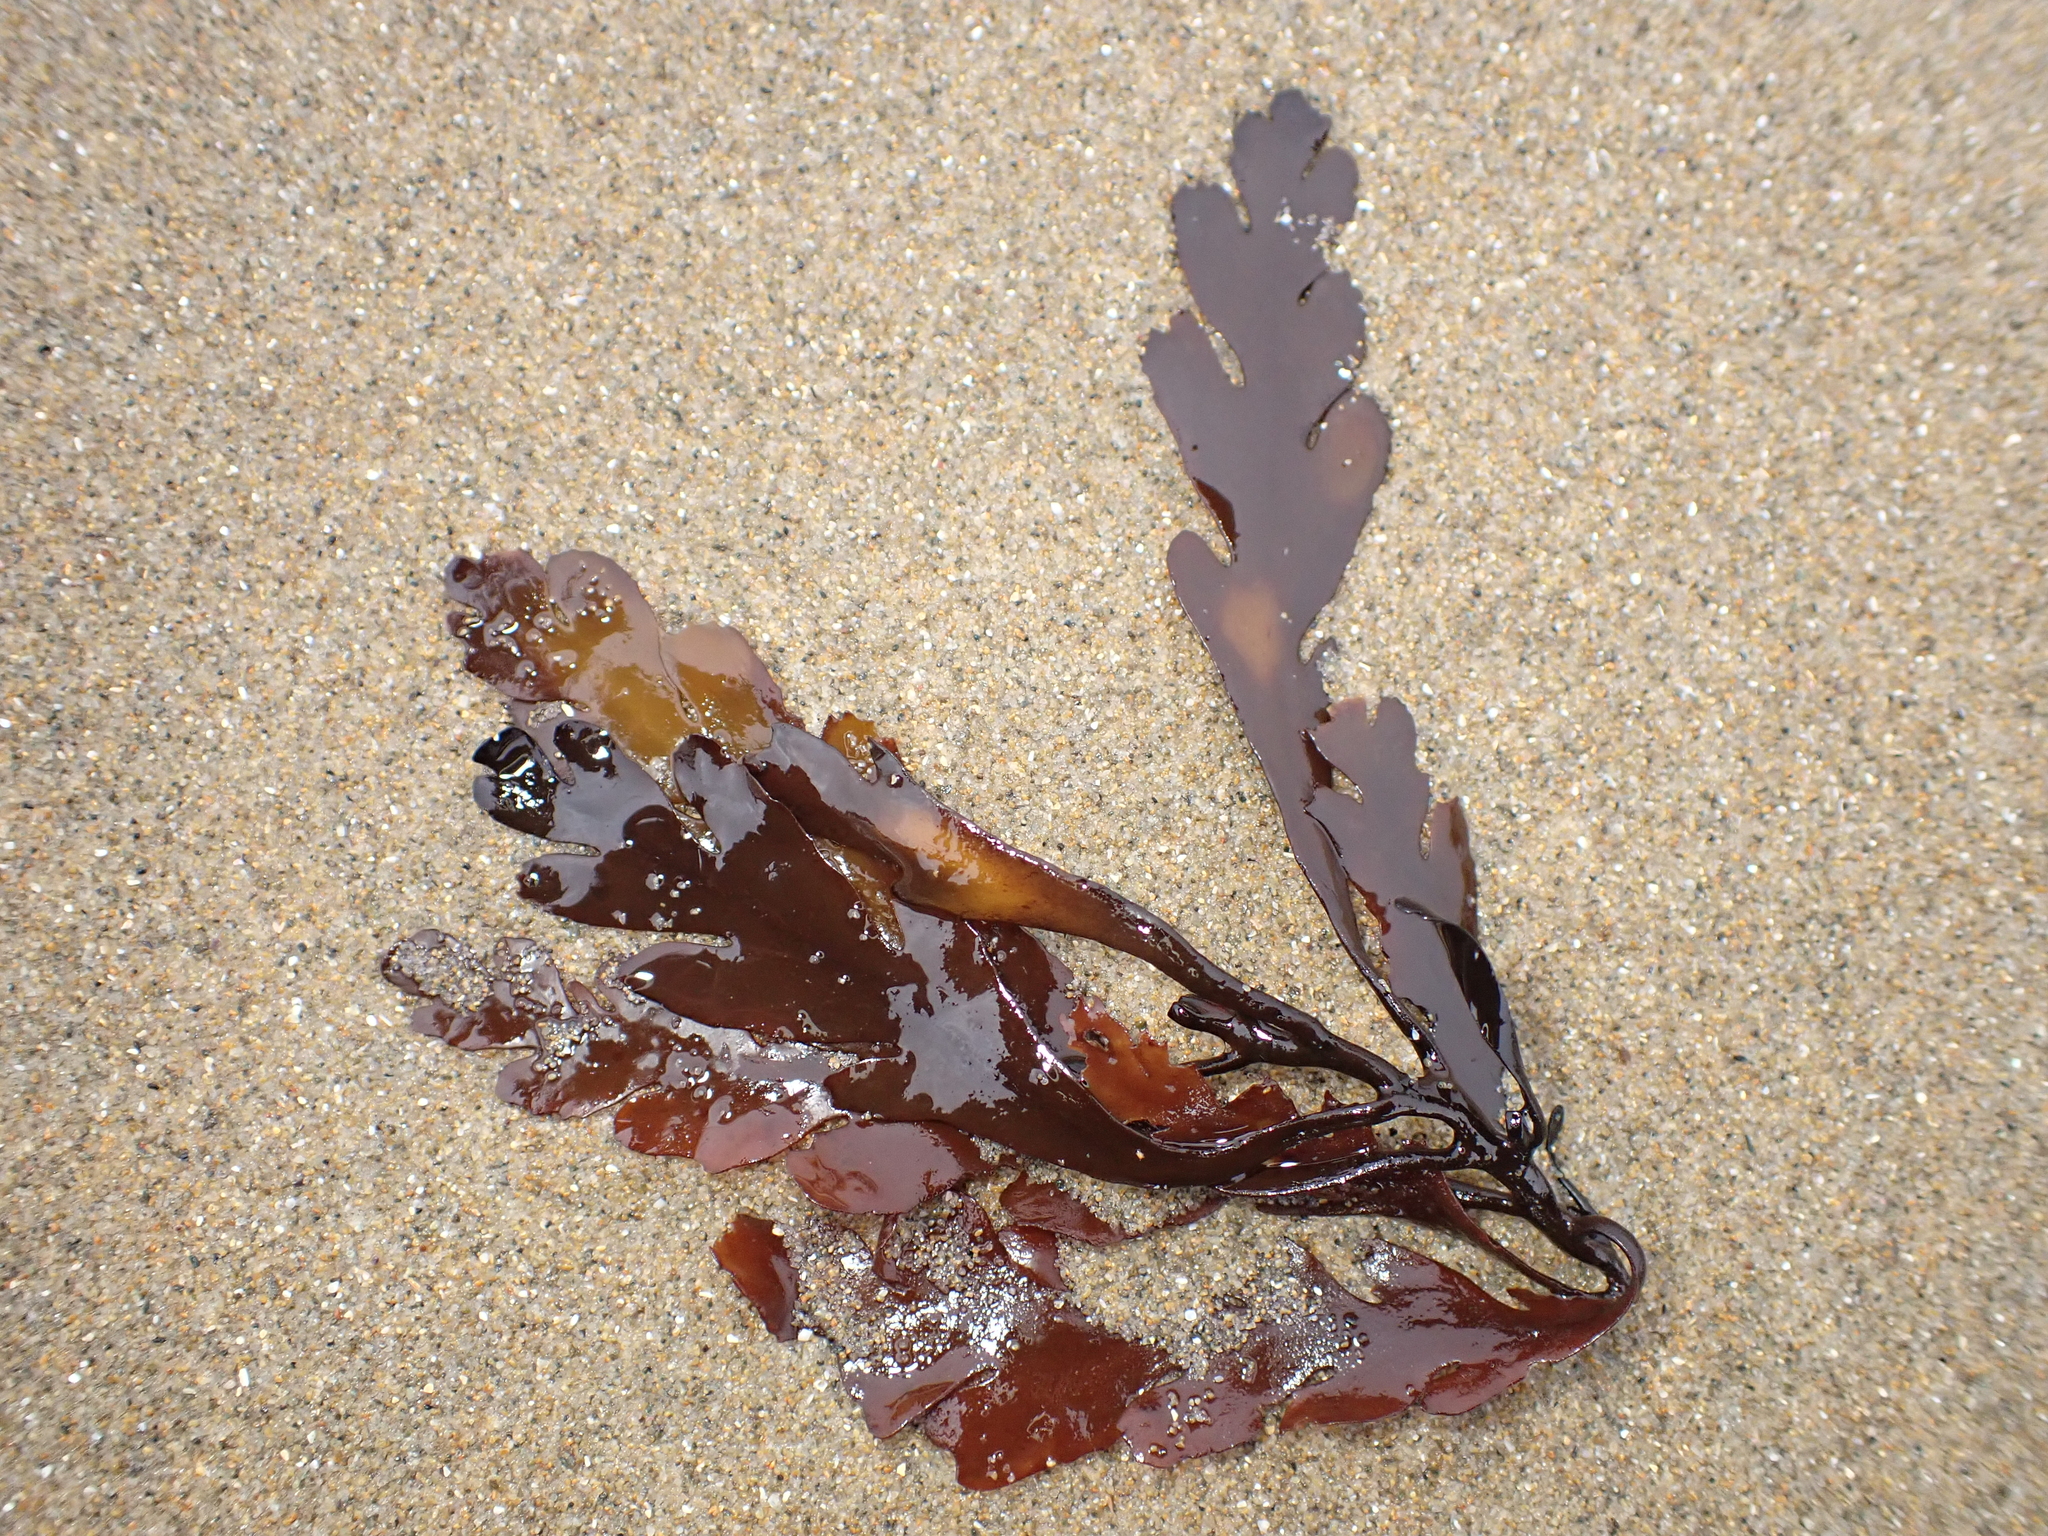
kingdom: Chromista
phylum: Ochrophyta
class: Phaeophyceae
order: Fucales
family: Sargassaceae
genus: Landsburgia
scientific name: Landsburgia quercifolia
